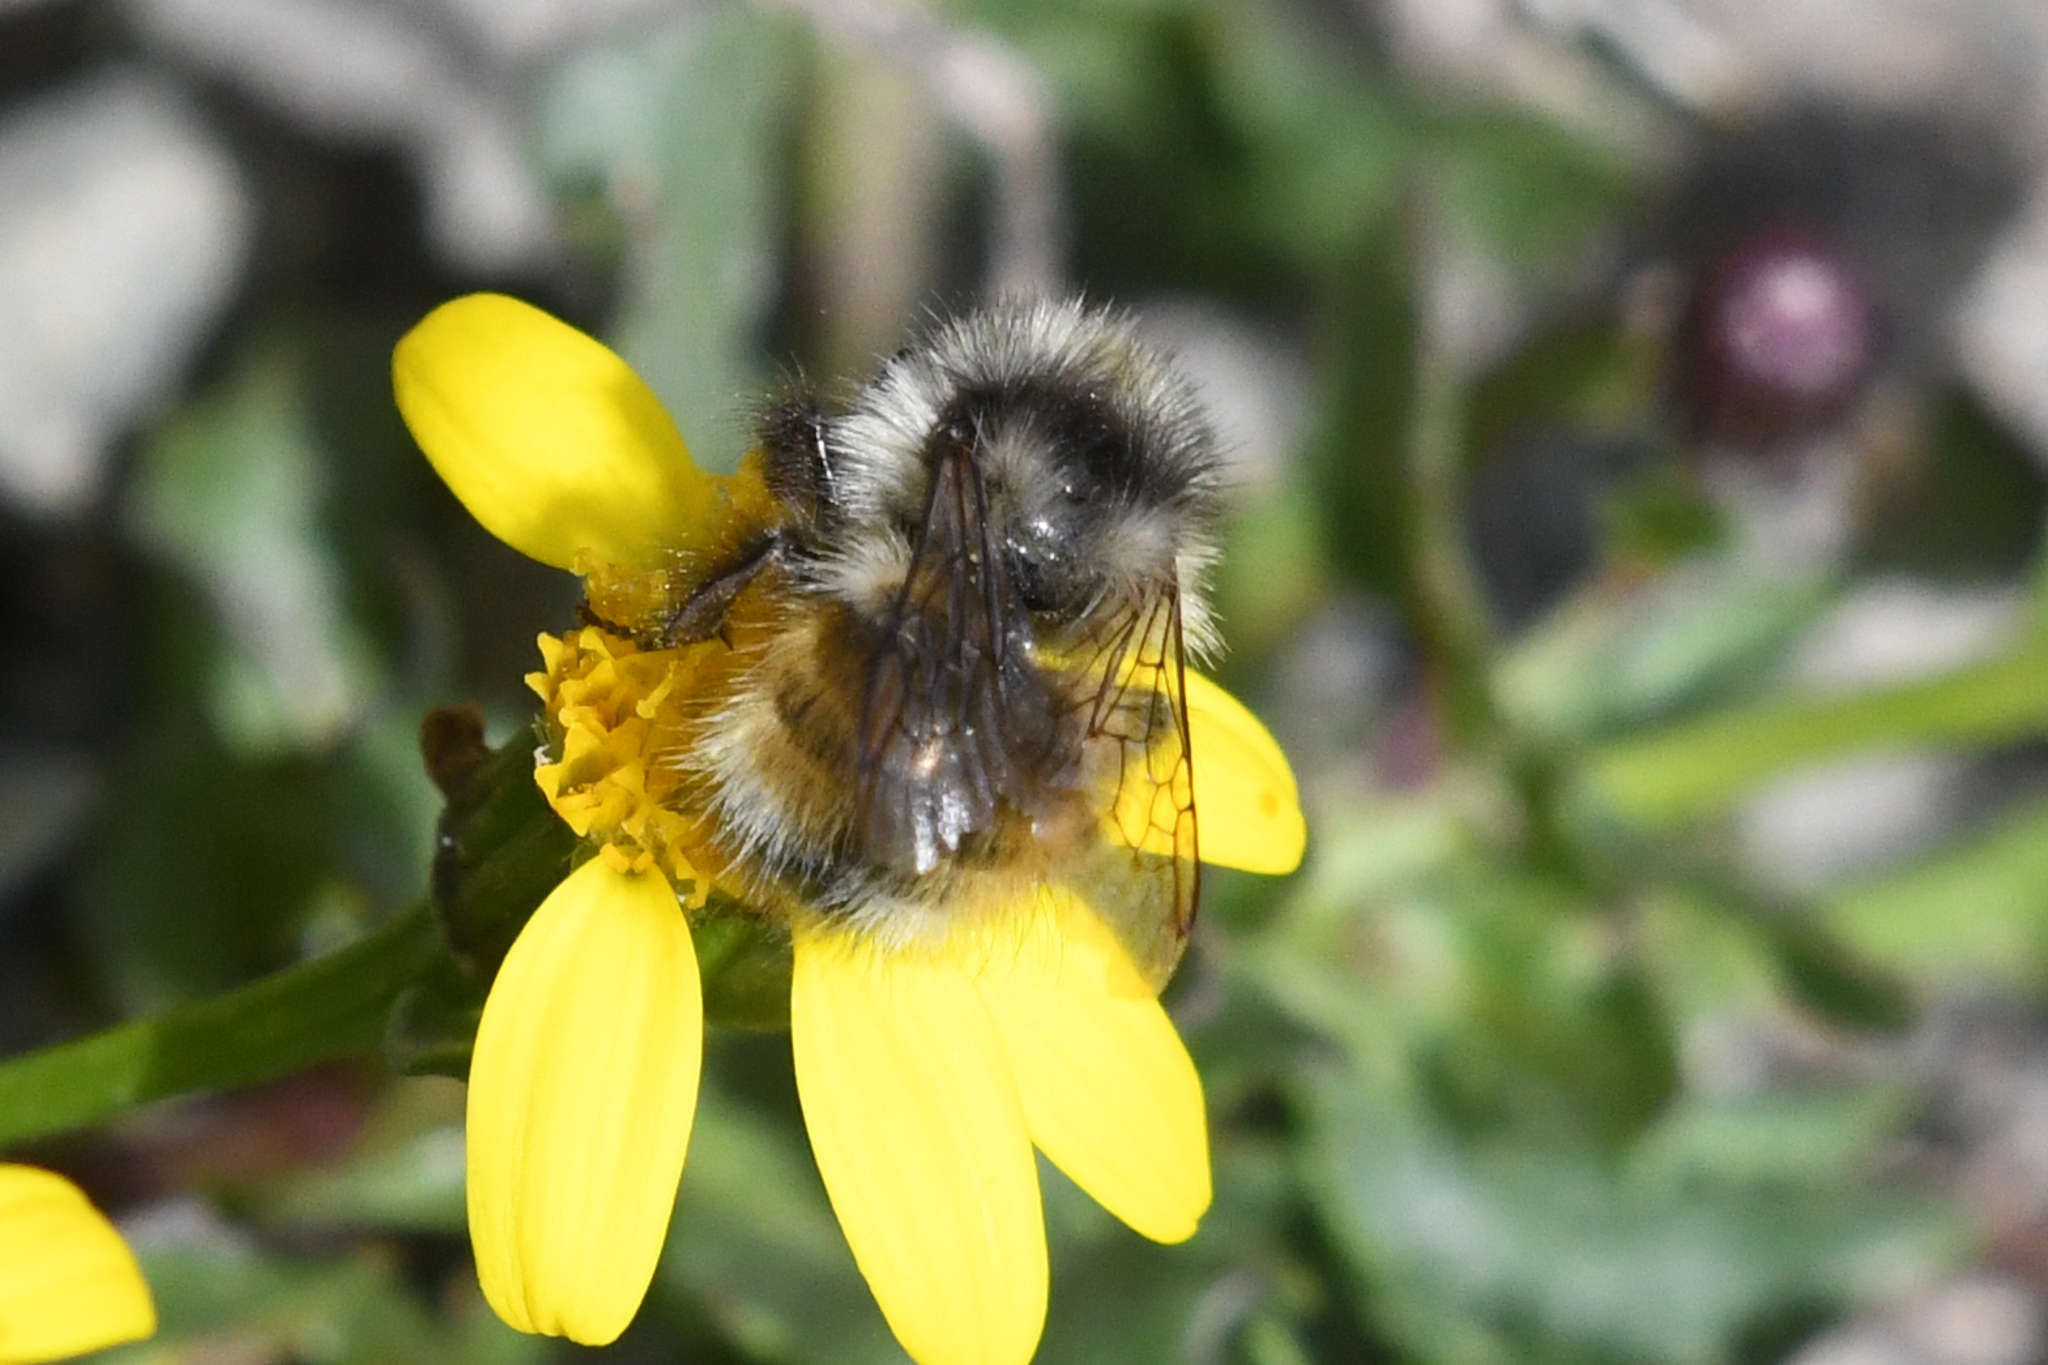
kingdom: Animalia
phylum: Arthropoda
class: Insecta
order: Hymenoptera
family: Apidae
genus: Bombus
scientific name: Bombus vancouverensis
